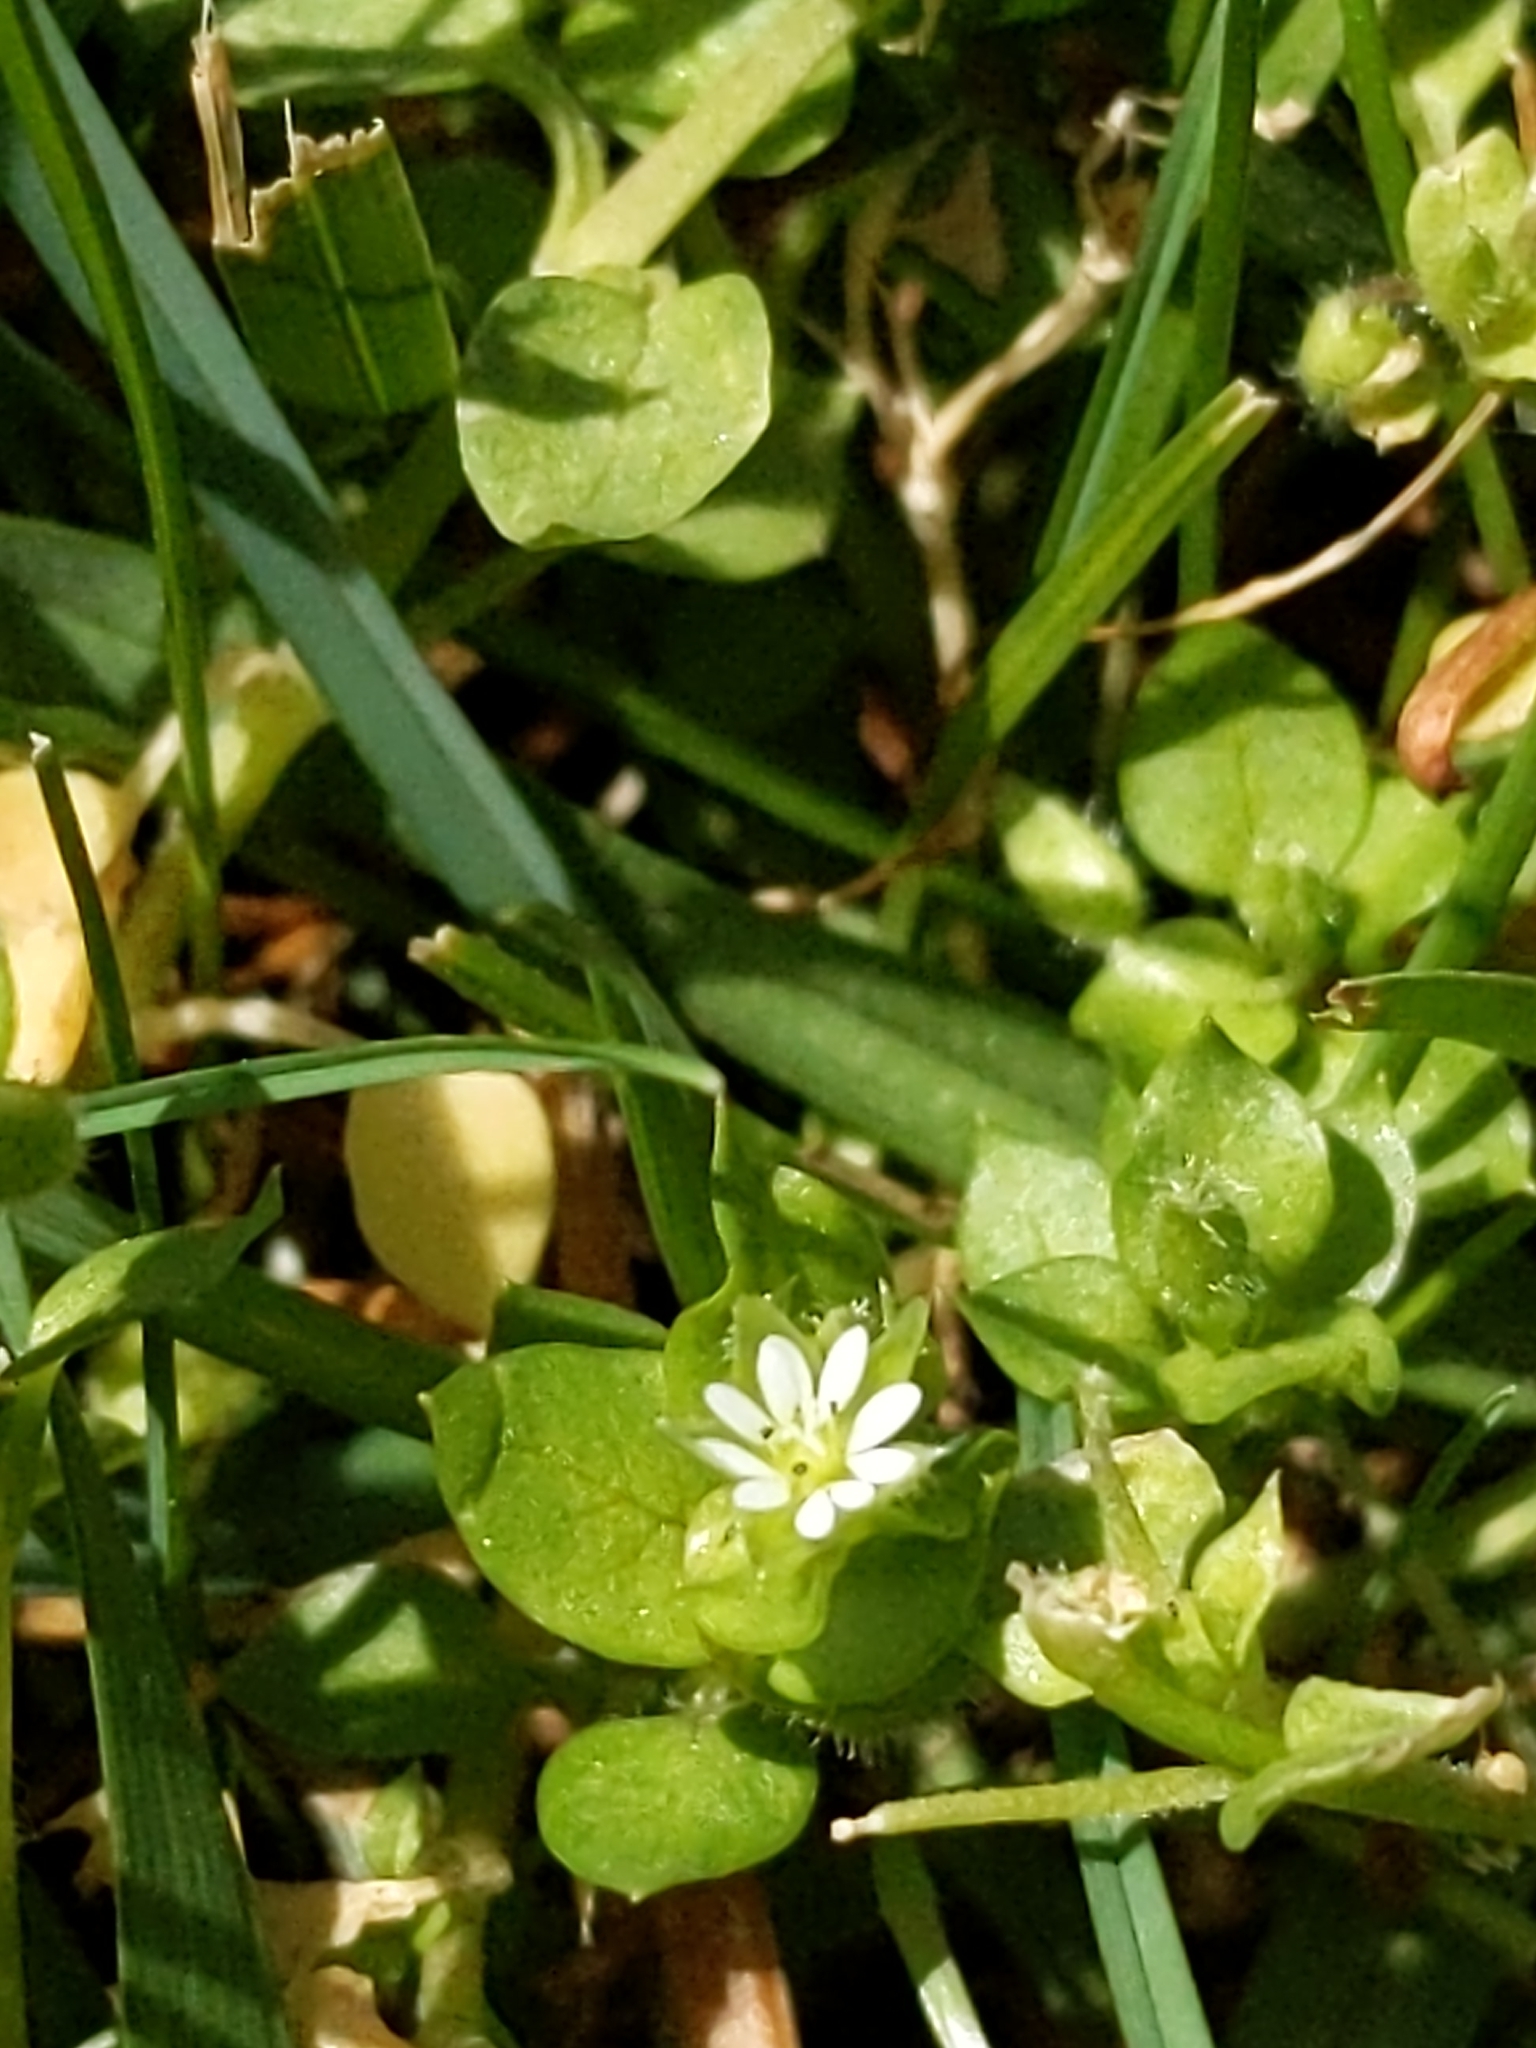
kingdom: Plantae
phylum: Tracheophyta
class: Magnoliopsida
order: Caryophyllales
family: Caryophyllaceae
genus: Stellaria
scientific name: Stellaria media
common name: Common chickweed
